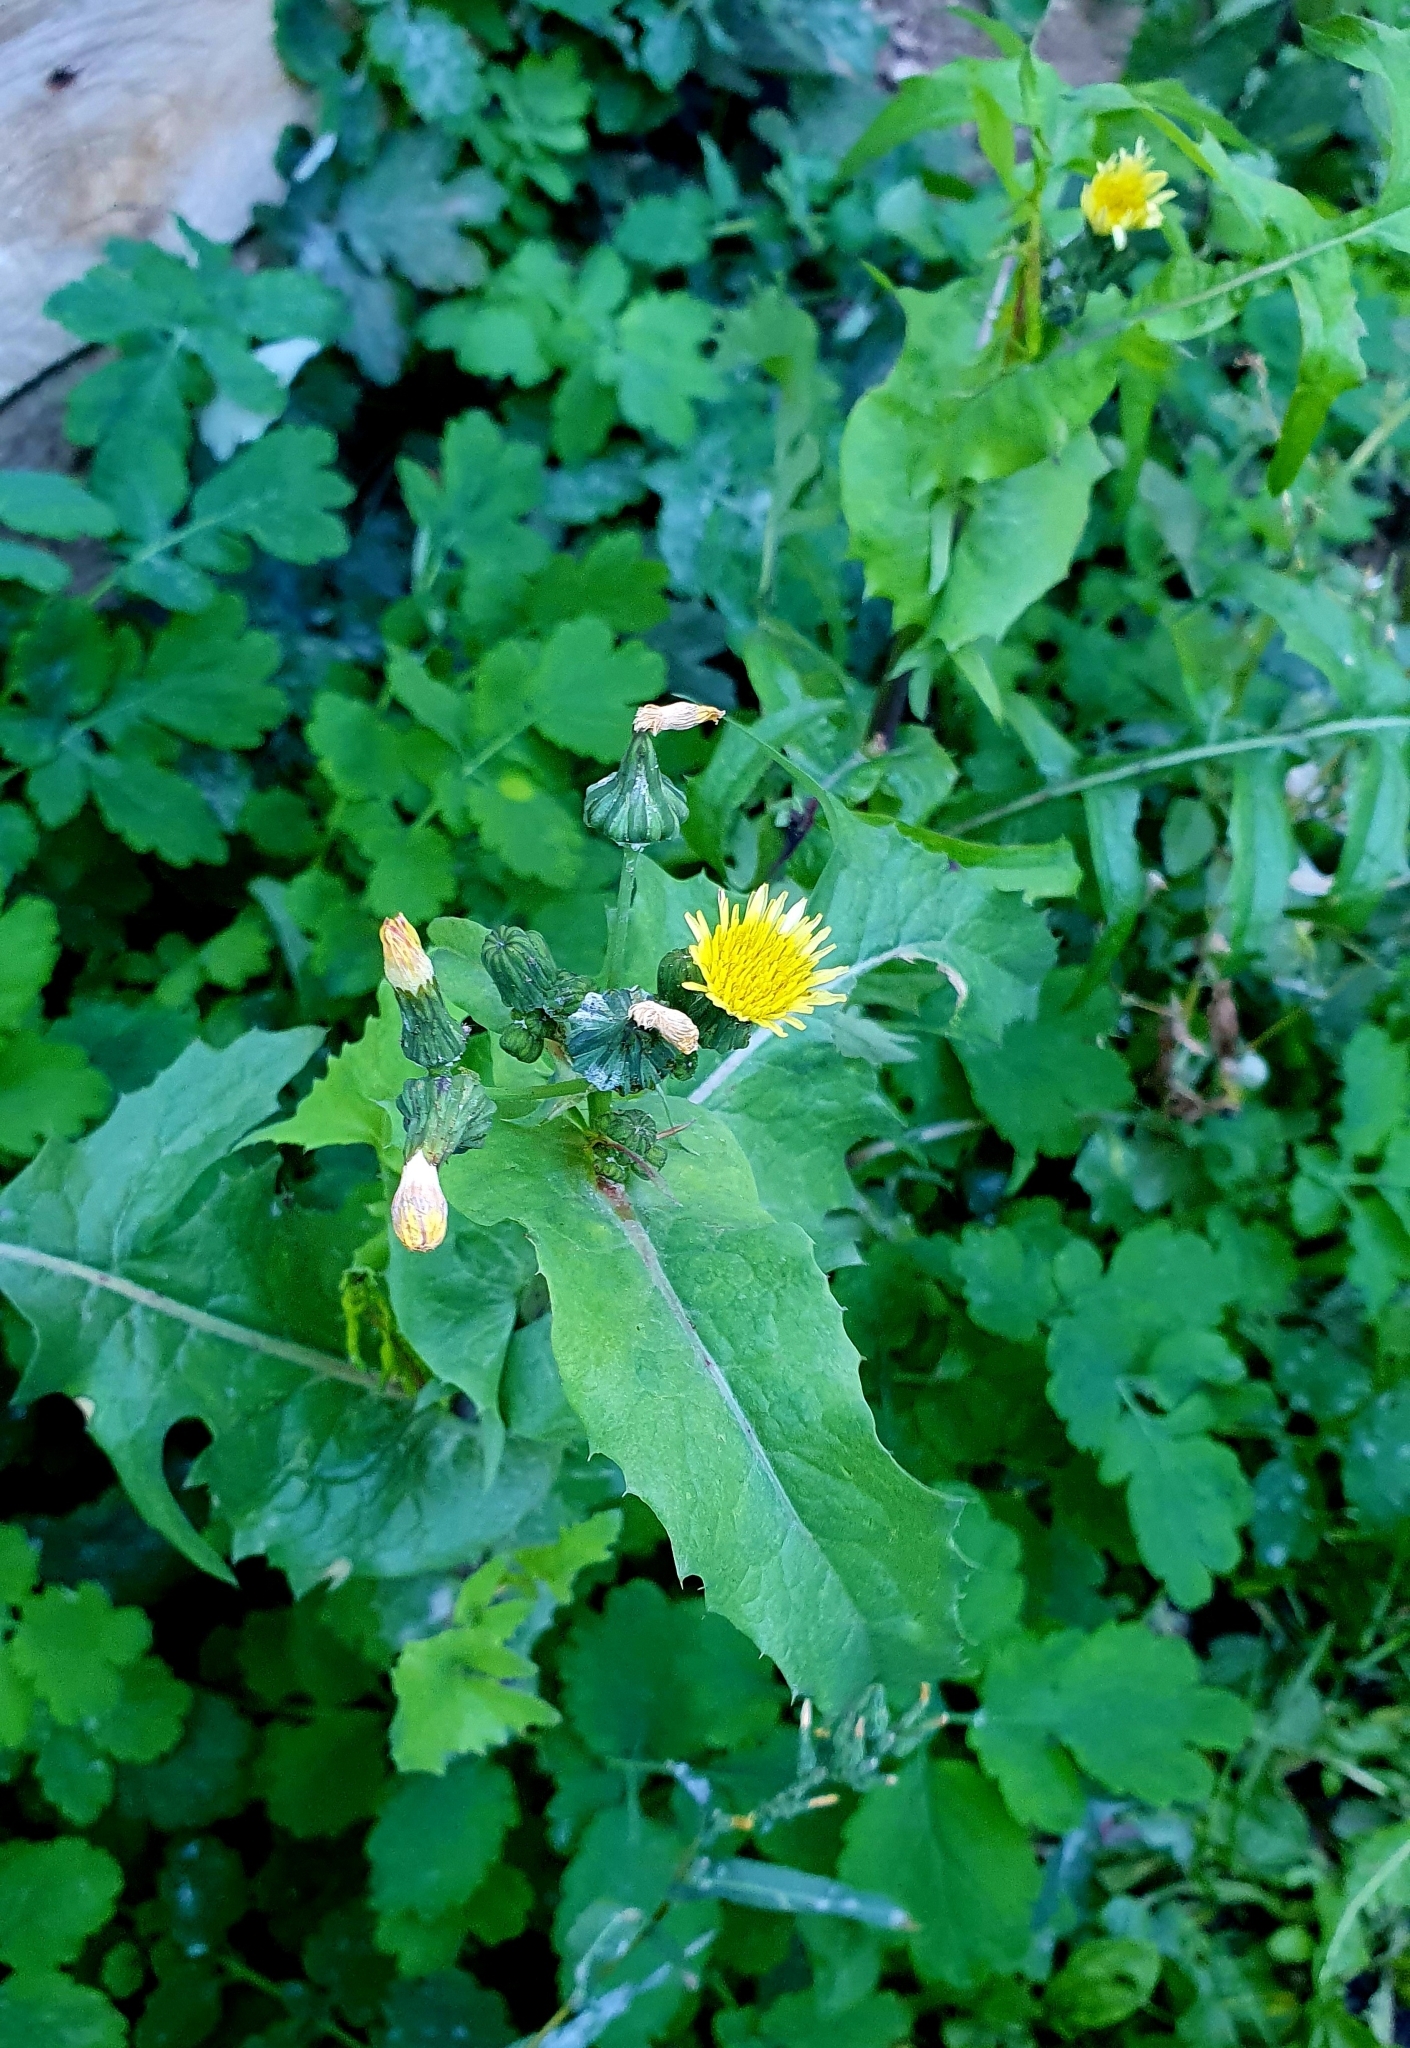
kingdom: Plantae
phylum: Tracheophyta
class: Magnoliopsida
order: Asterales
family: Asteraceae
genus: Sonchus
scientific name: Sonchus oleraceus
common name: Common sowthistle
